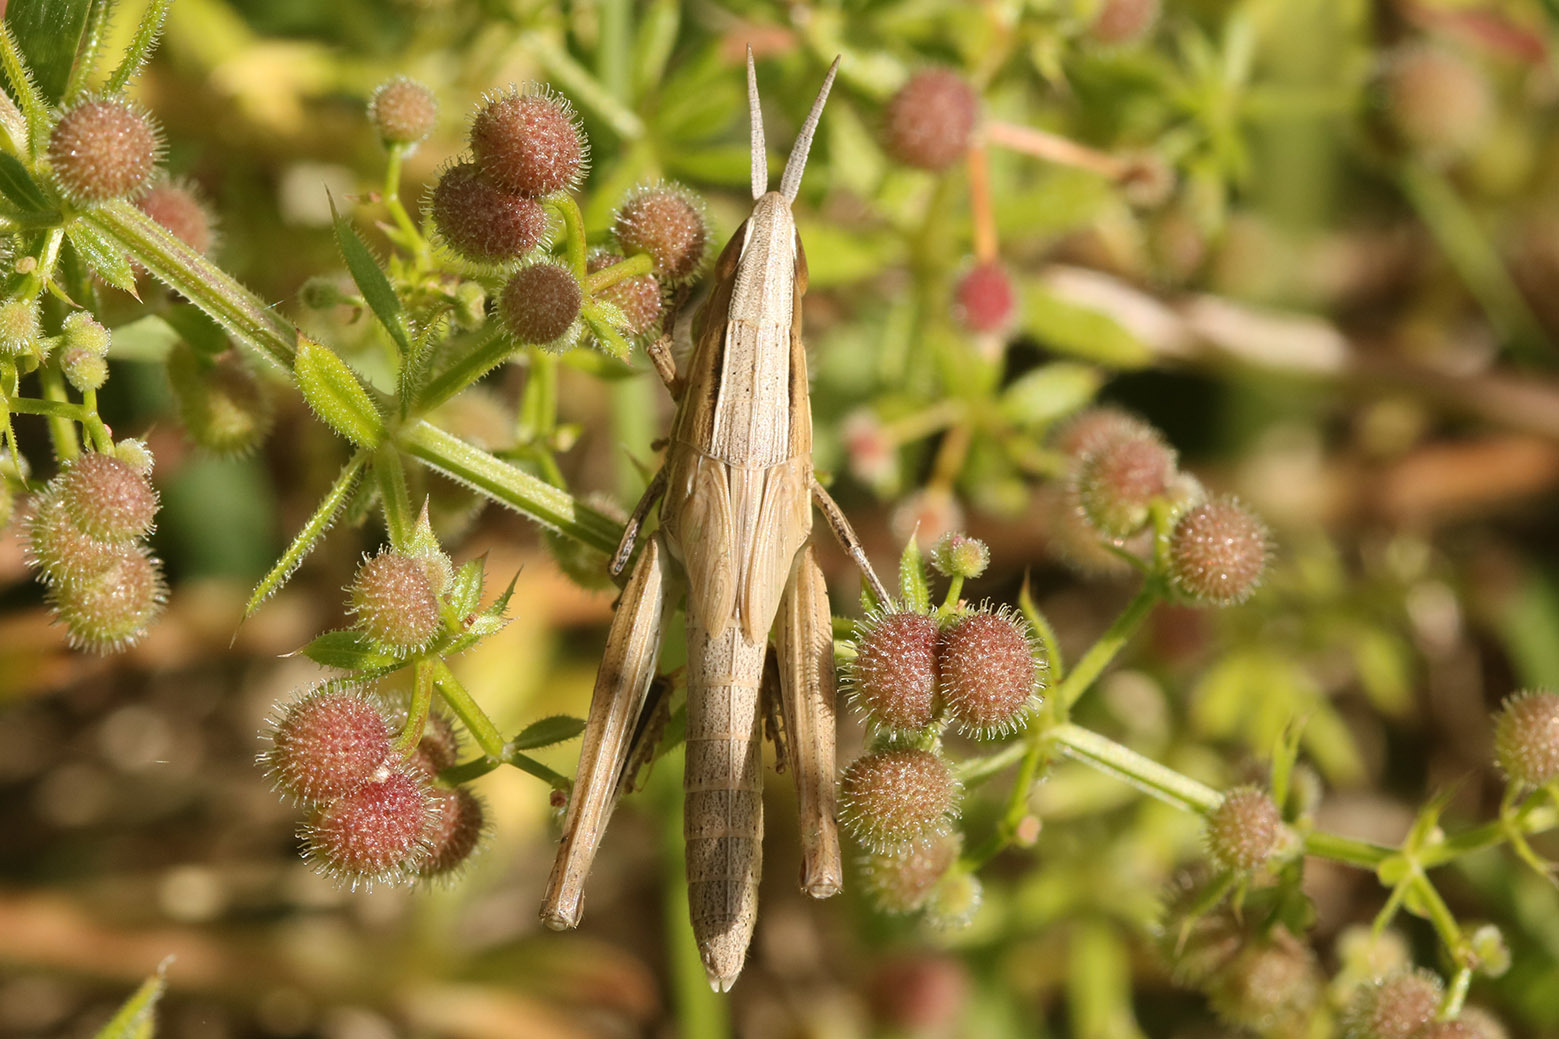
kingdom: Animalia
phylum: Arthropoda
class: Insecta
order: Orthoptera
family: Acrididae
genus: Sinipta
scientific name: Sinipta dalmani
